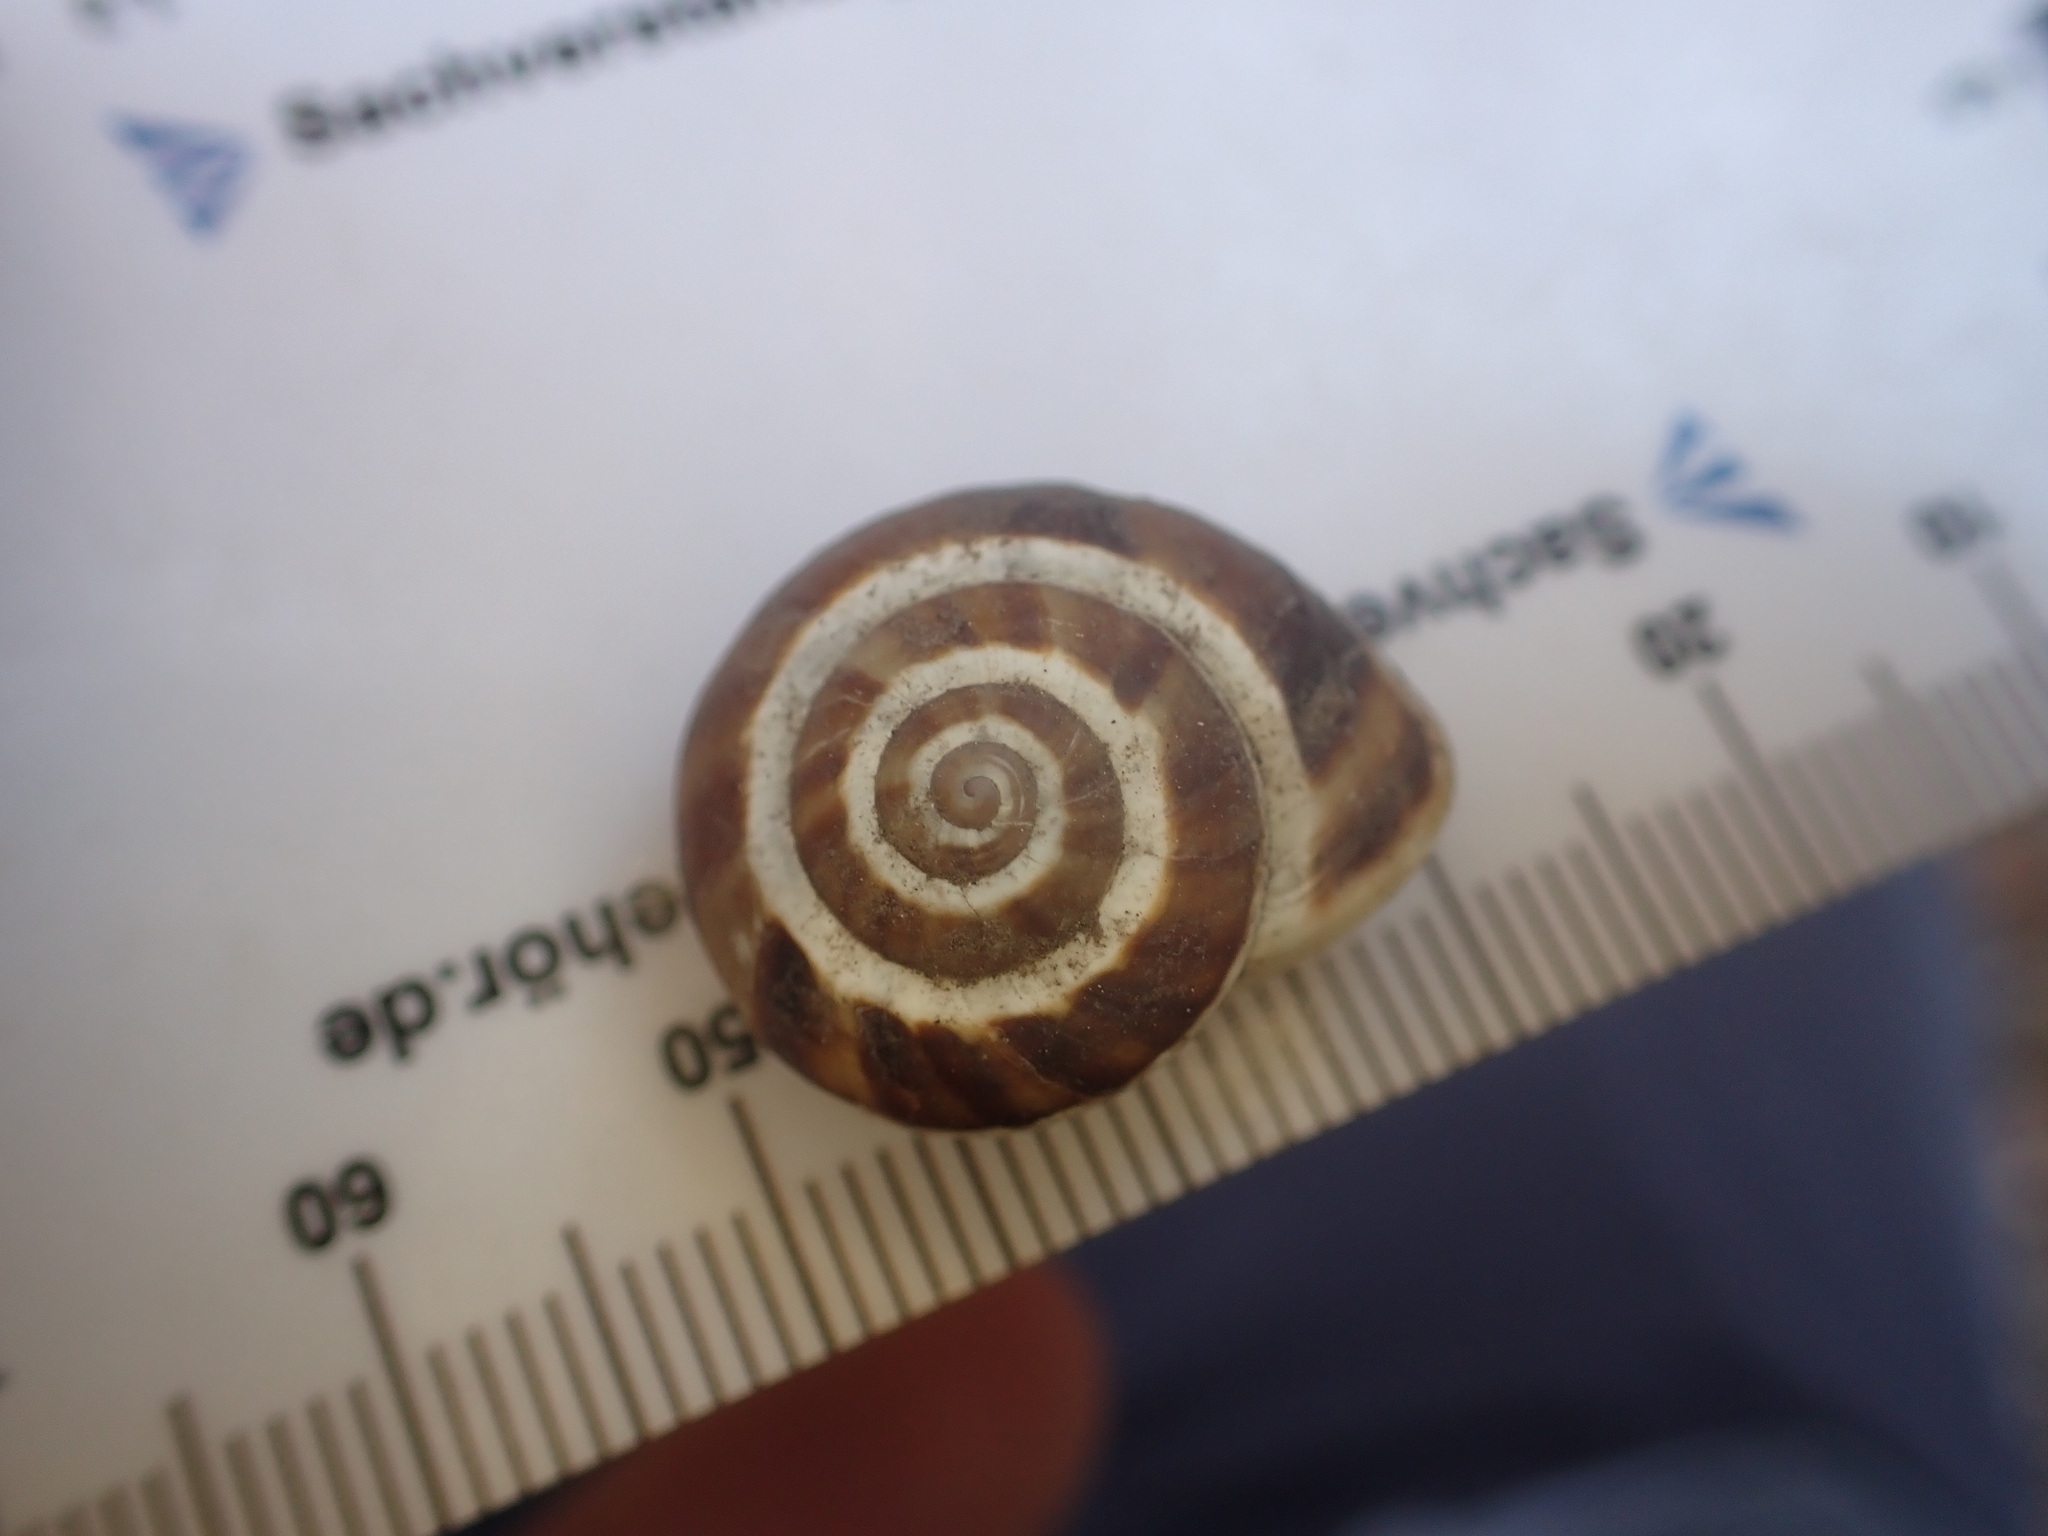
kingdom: Animalia
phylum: Mollusca
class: Gastropoda
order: Stylommatophora
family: Helicidae
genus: Pseudotachea
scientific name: Pseudotachea splendida
